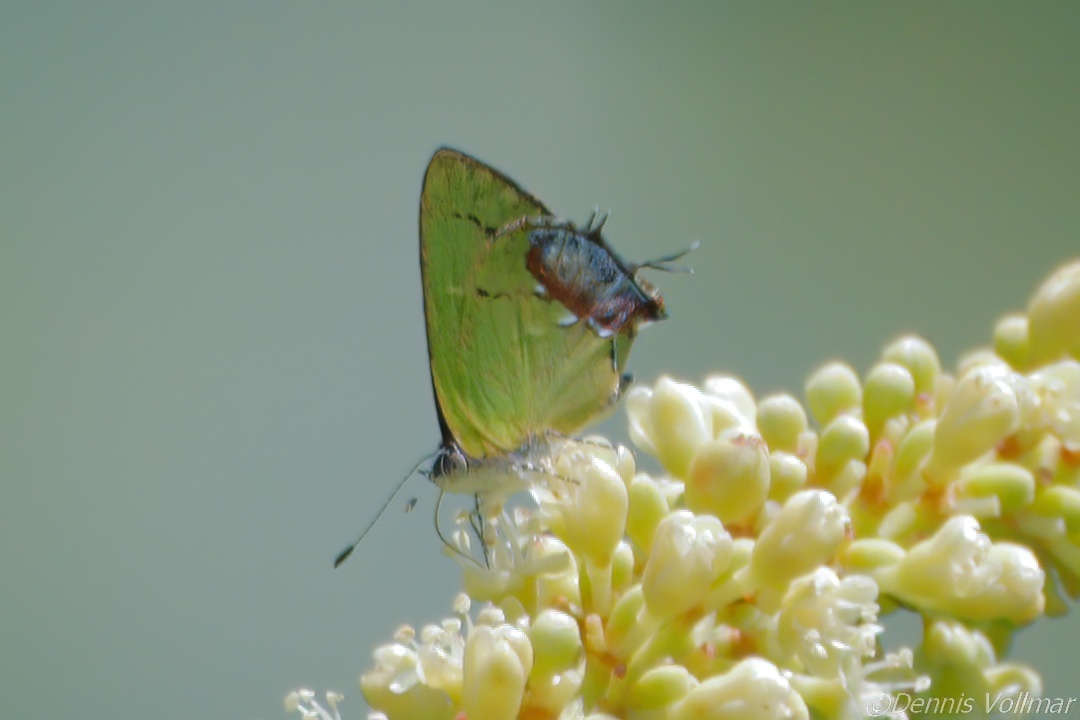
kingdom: Animalia
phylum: Arthropoda
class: Insecta
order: Lepidoptera
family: Lycaenidae
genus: Thecla
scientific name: Thecla maesites
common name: Verde azul hairstreak
